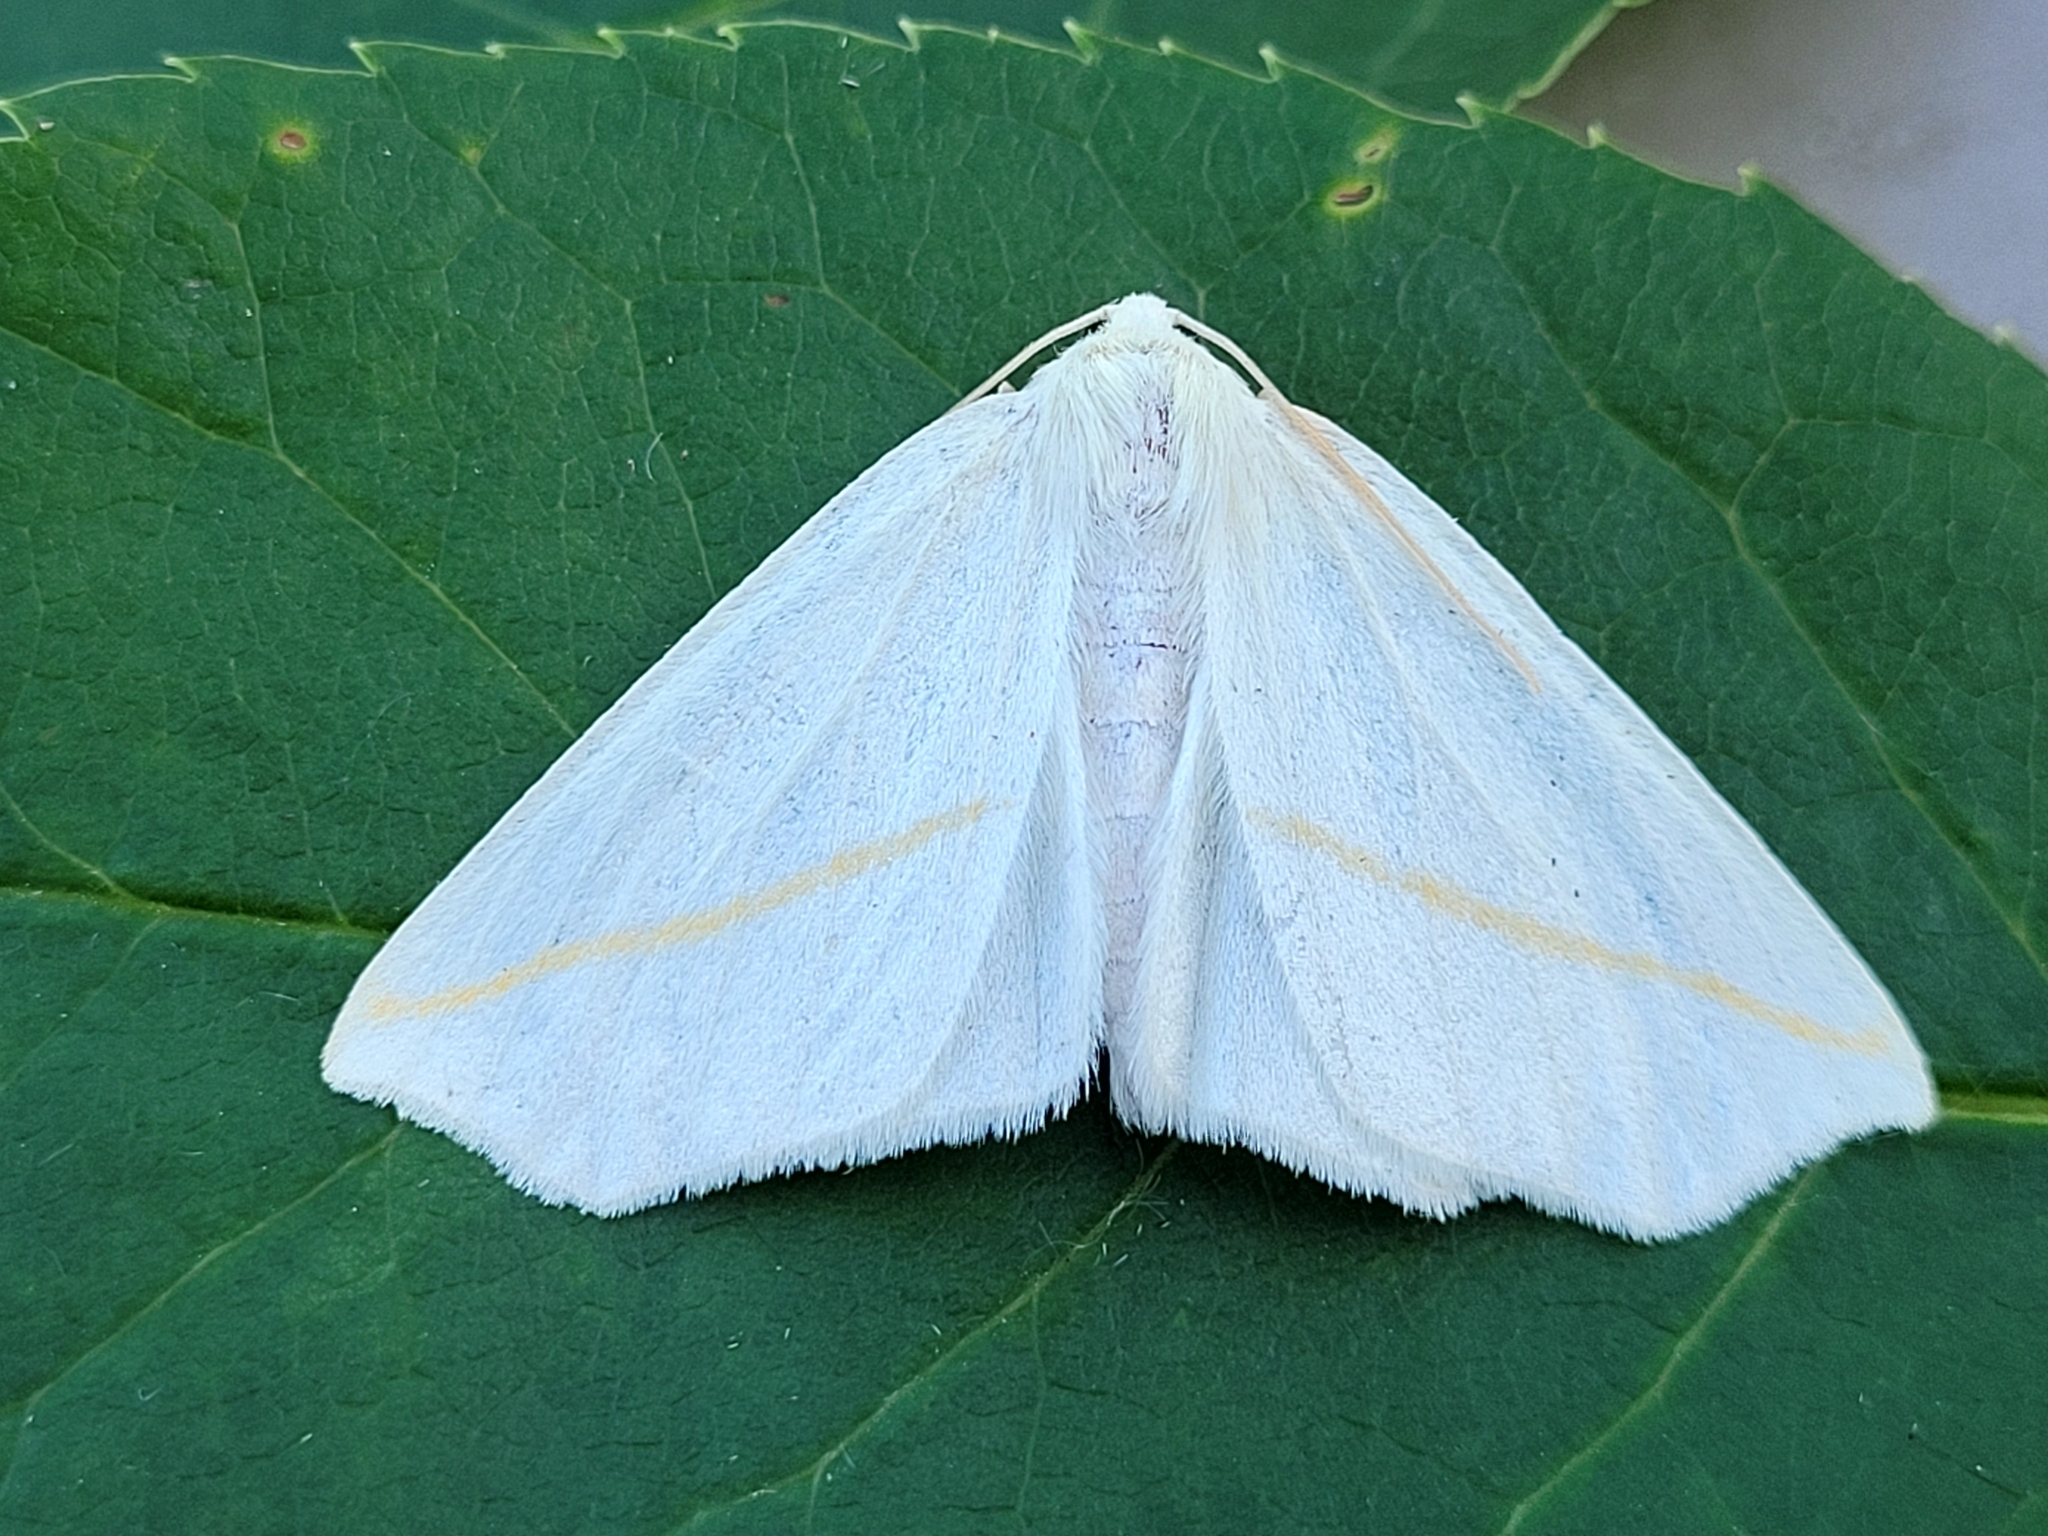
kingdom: Animalia
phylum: Arthropoda
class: Insecta
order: Lepidoptera
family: Geometridae
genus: Tetracis
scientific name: Tetracis cachexiata
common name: White slant-line
